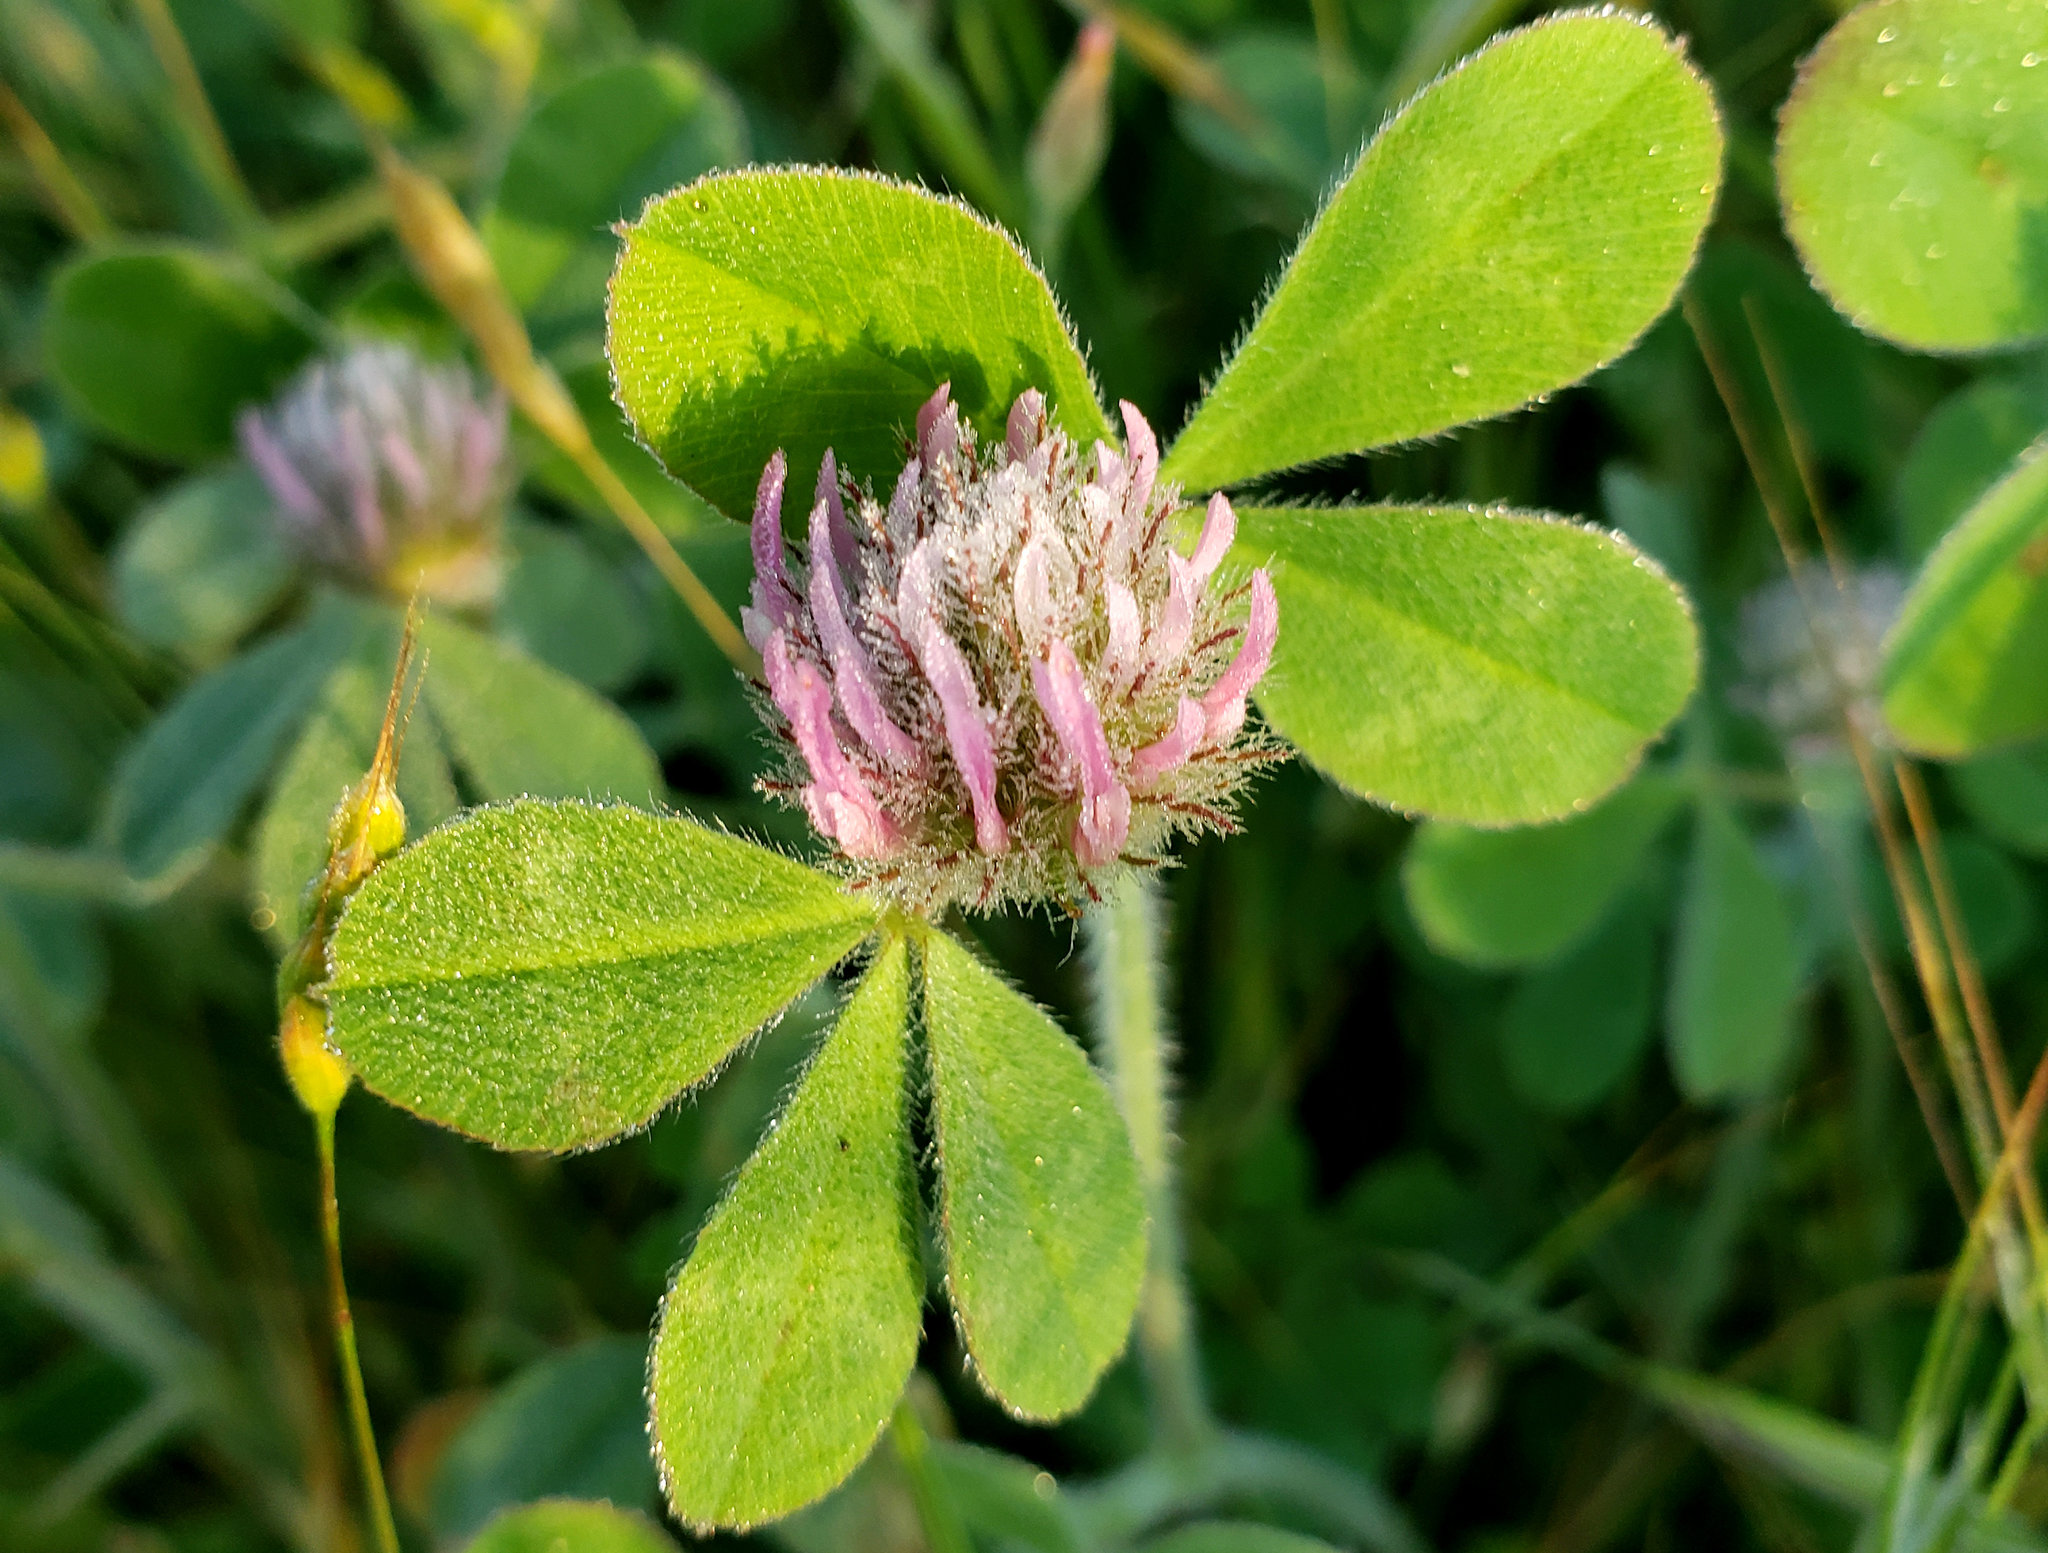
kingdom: Plantae
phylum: Tracheophyta
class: Magnoliopsida
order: Fabales
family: Fabaceae
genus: Trifolium
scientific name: Trifolium hirtum
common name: Rose clover
